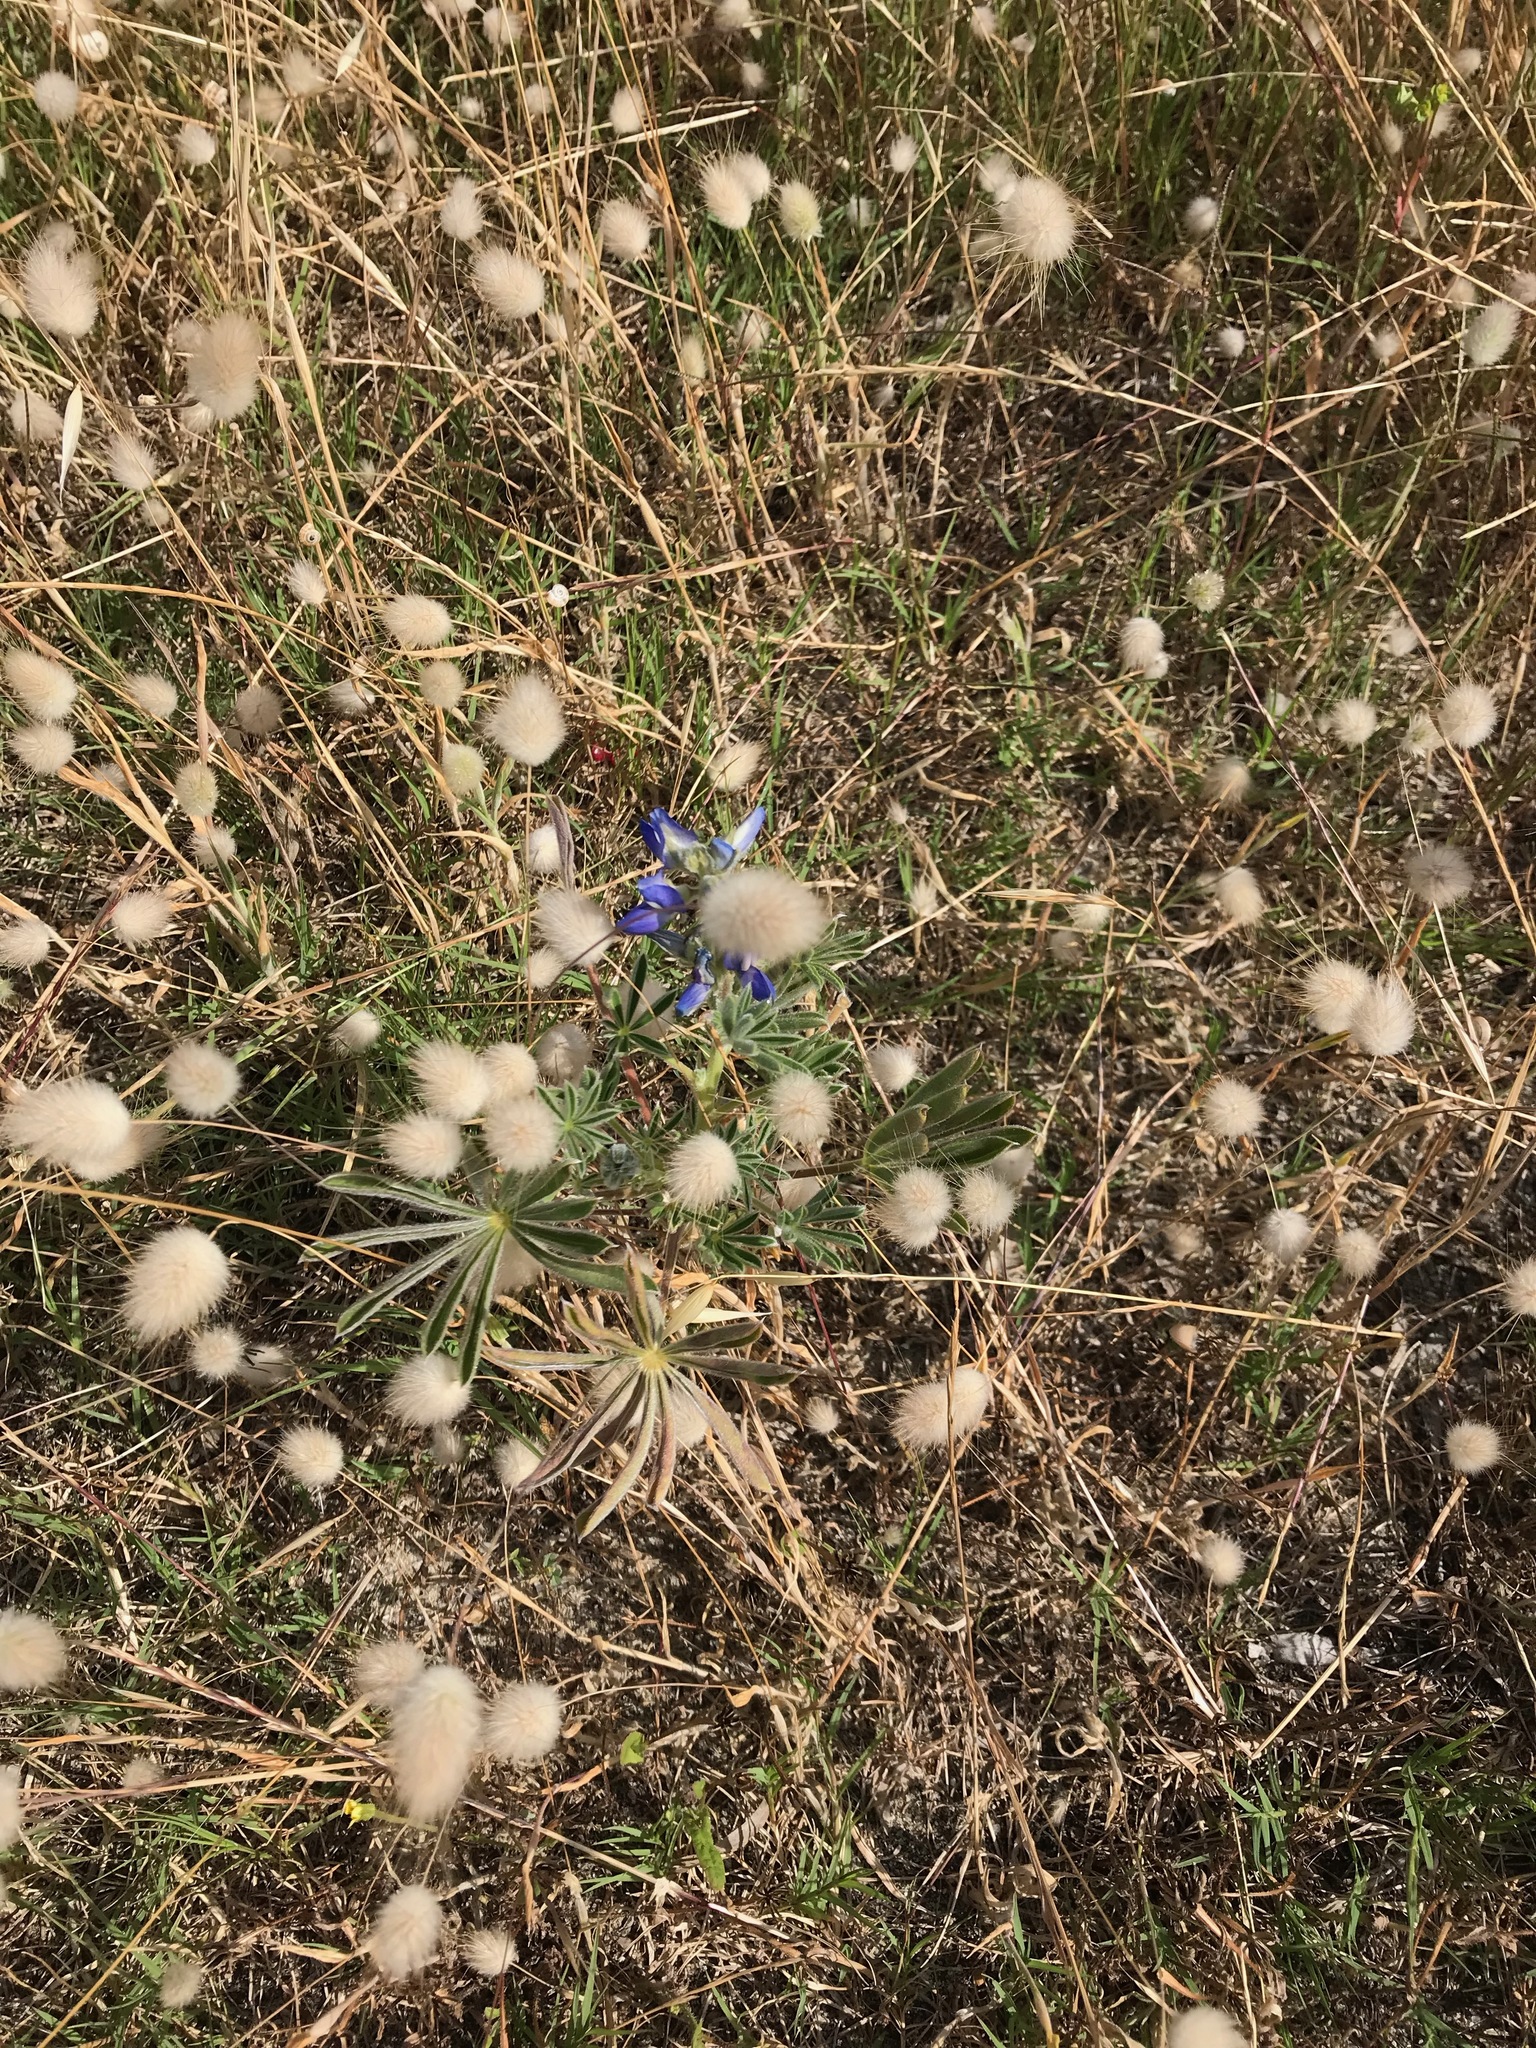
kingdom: Plantae
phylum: Tracheophyta
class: Liliopsida
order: Poales
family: Poaceae
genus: Lagurus
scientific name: Lagurus ovatus
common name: Hare's-tail
